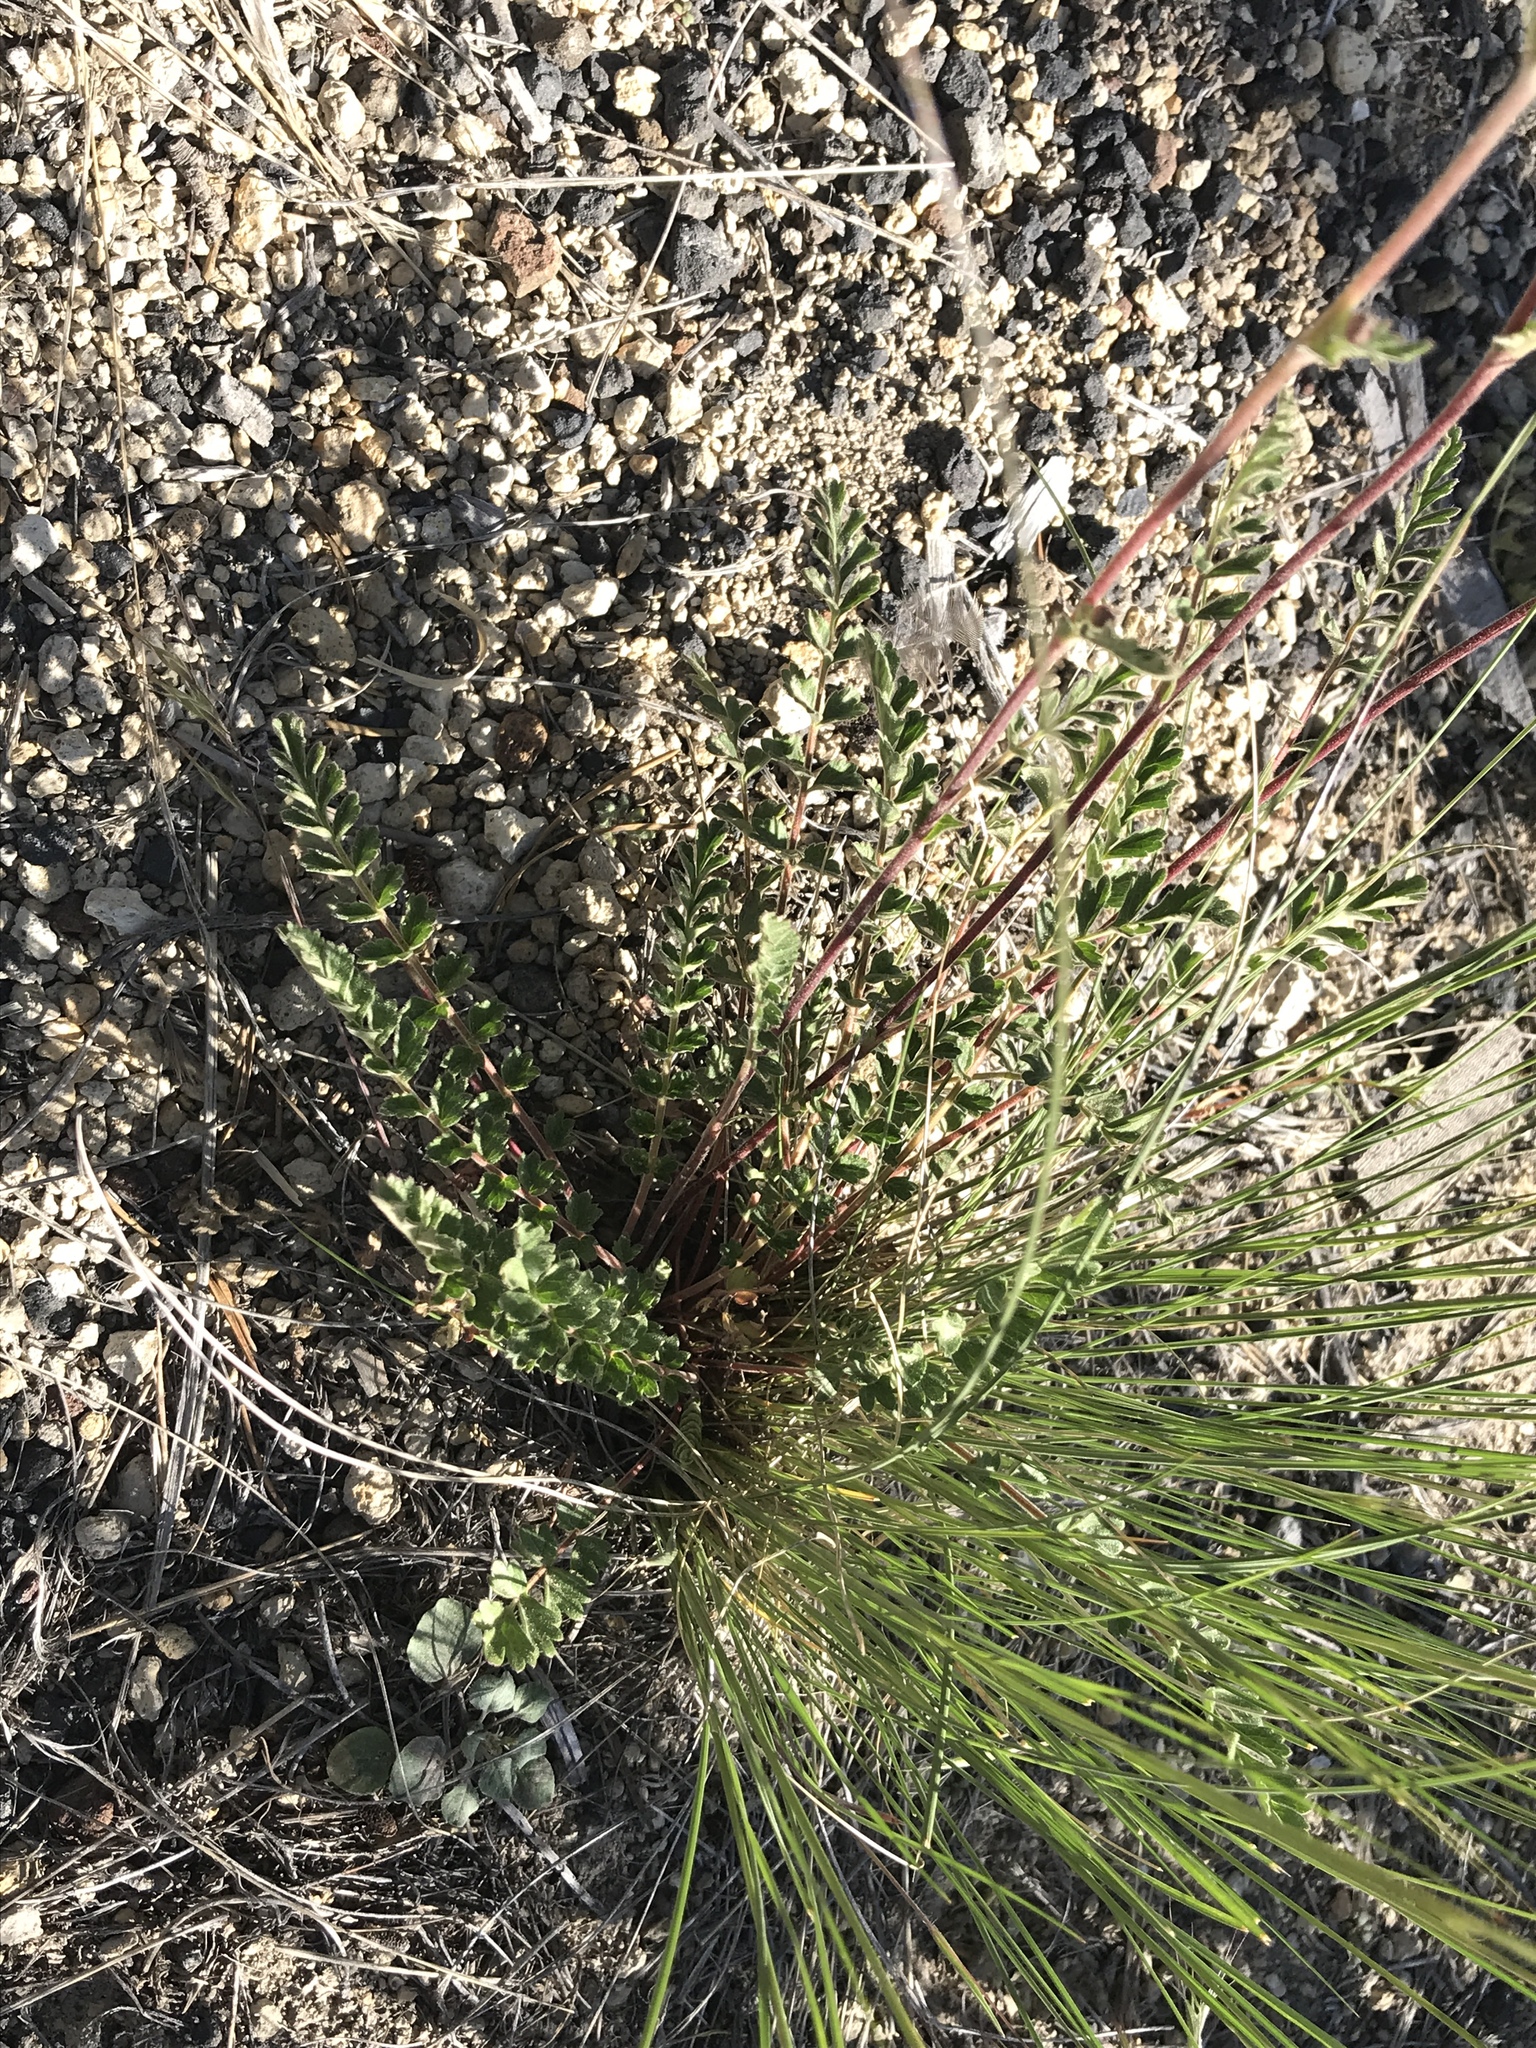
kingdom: Plantae
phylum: Tracheophyta
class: Magnoliopsida
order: Rosales
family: Rosaceae
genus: Potentilla
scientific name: Potentilla douglasii
